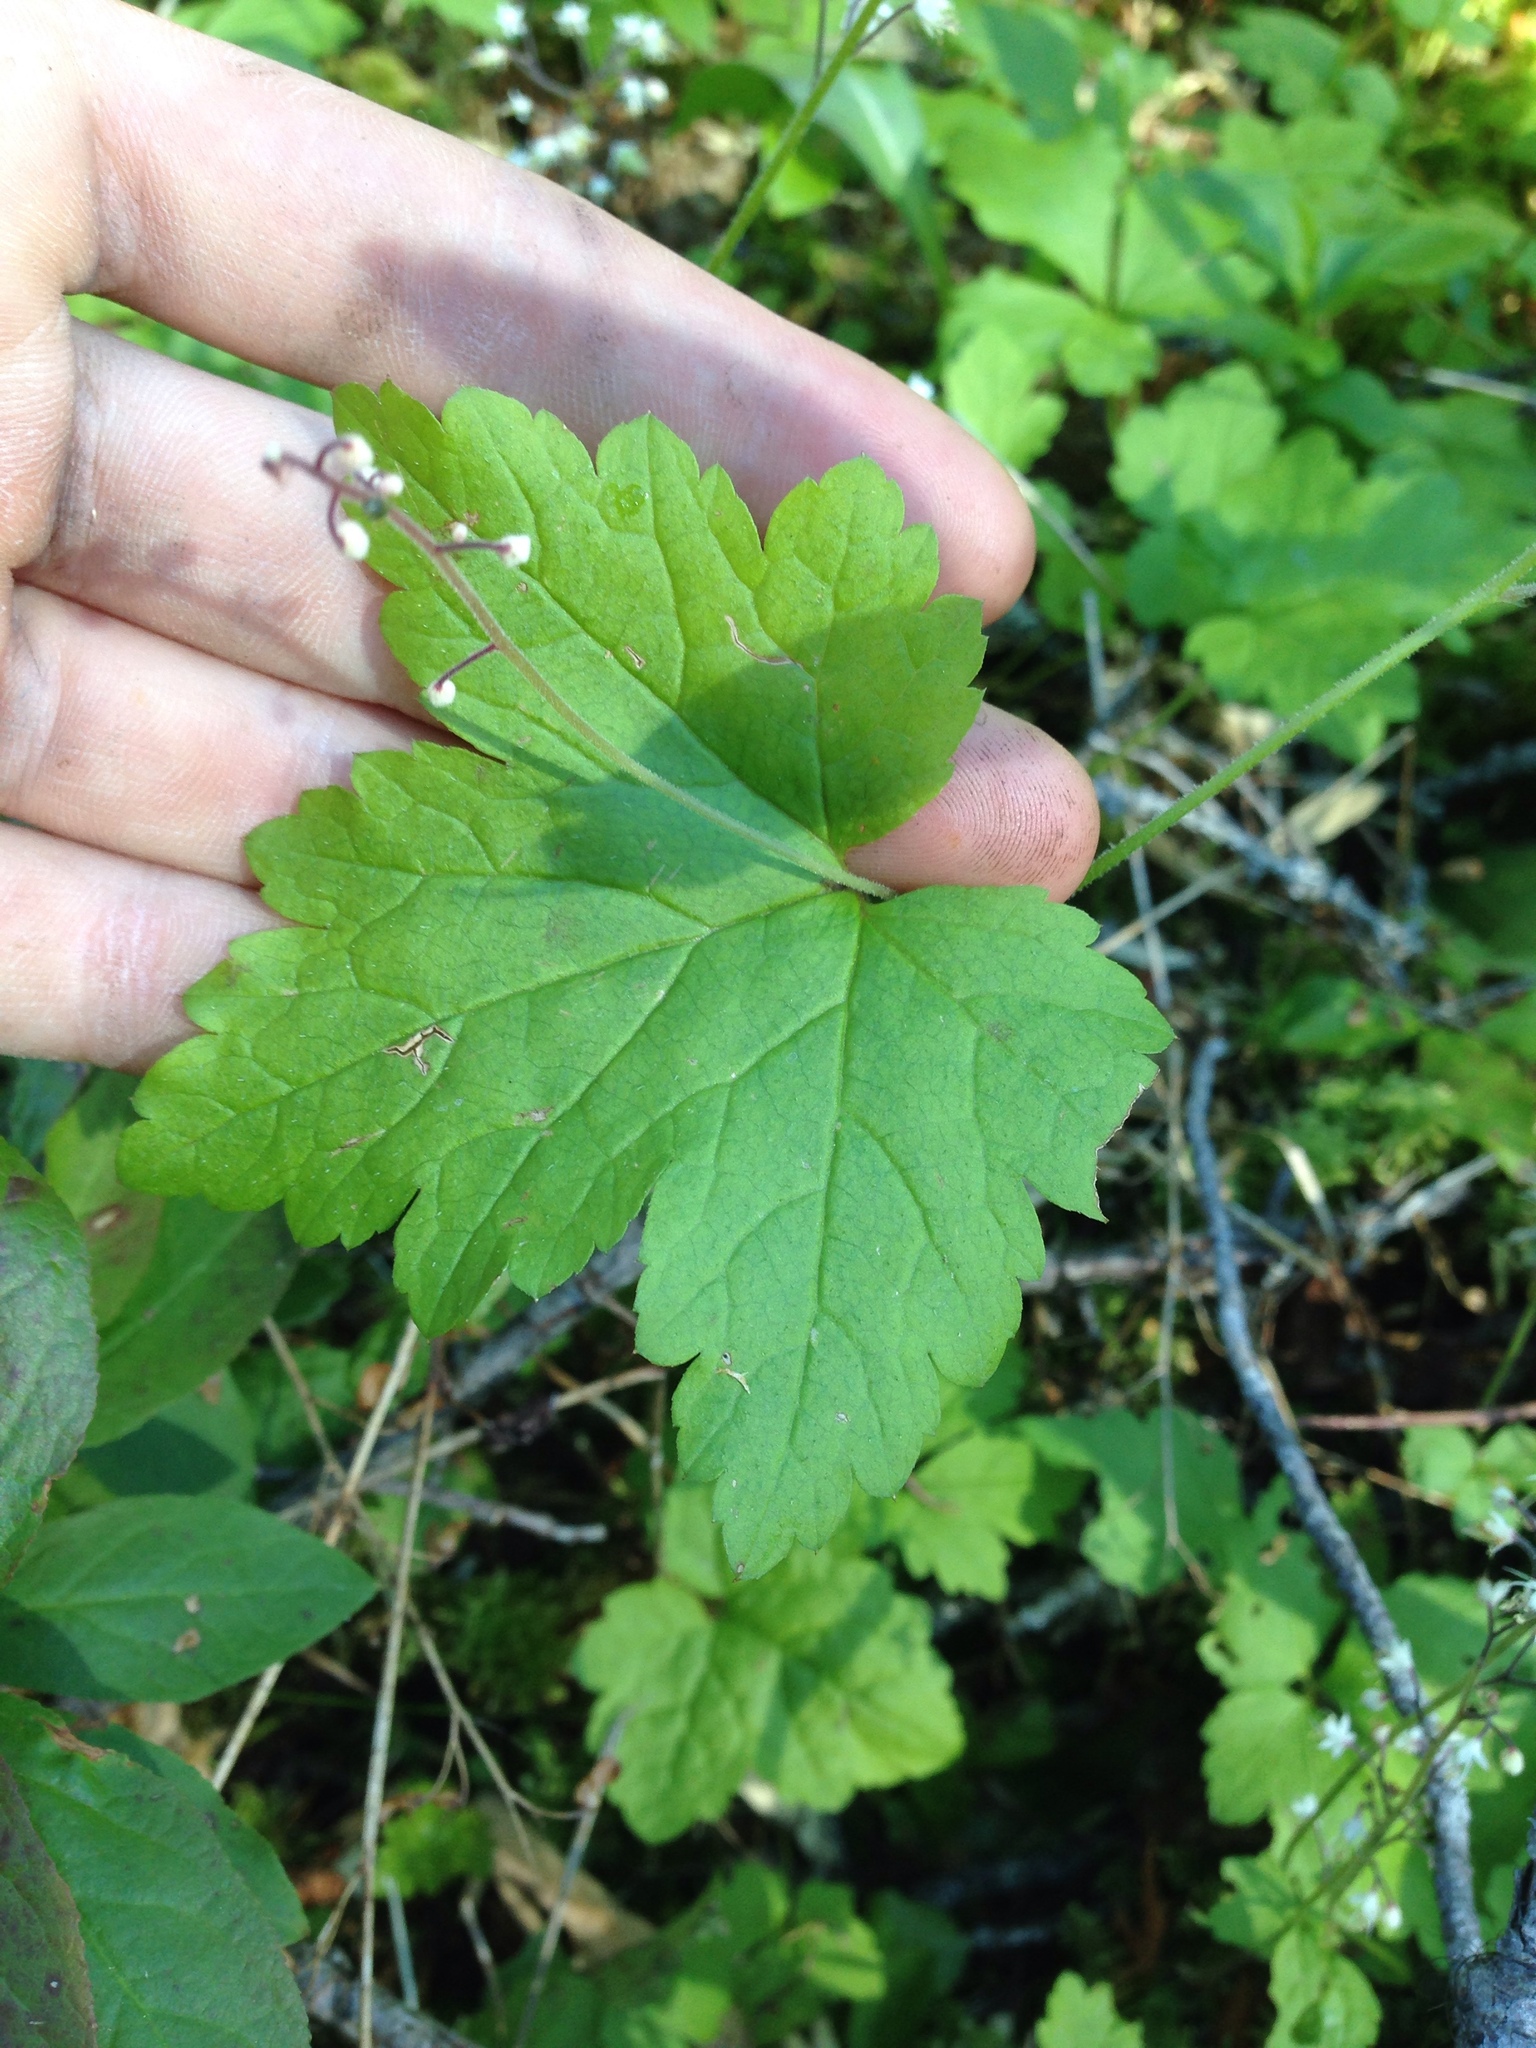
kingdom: Plantae
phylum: Tracheophyta
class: Magnoliopsida
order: Saxifragales
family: Saxifragaceae
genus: Tiarella
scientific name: Tiarella trifoliata
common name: Sugar-scoop
